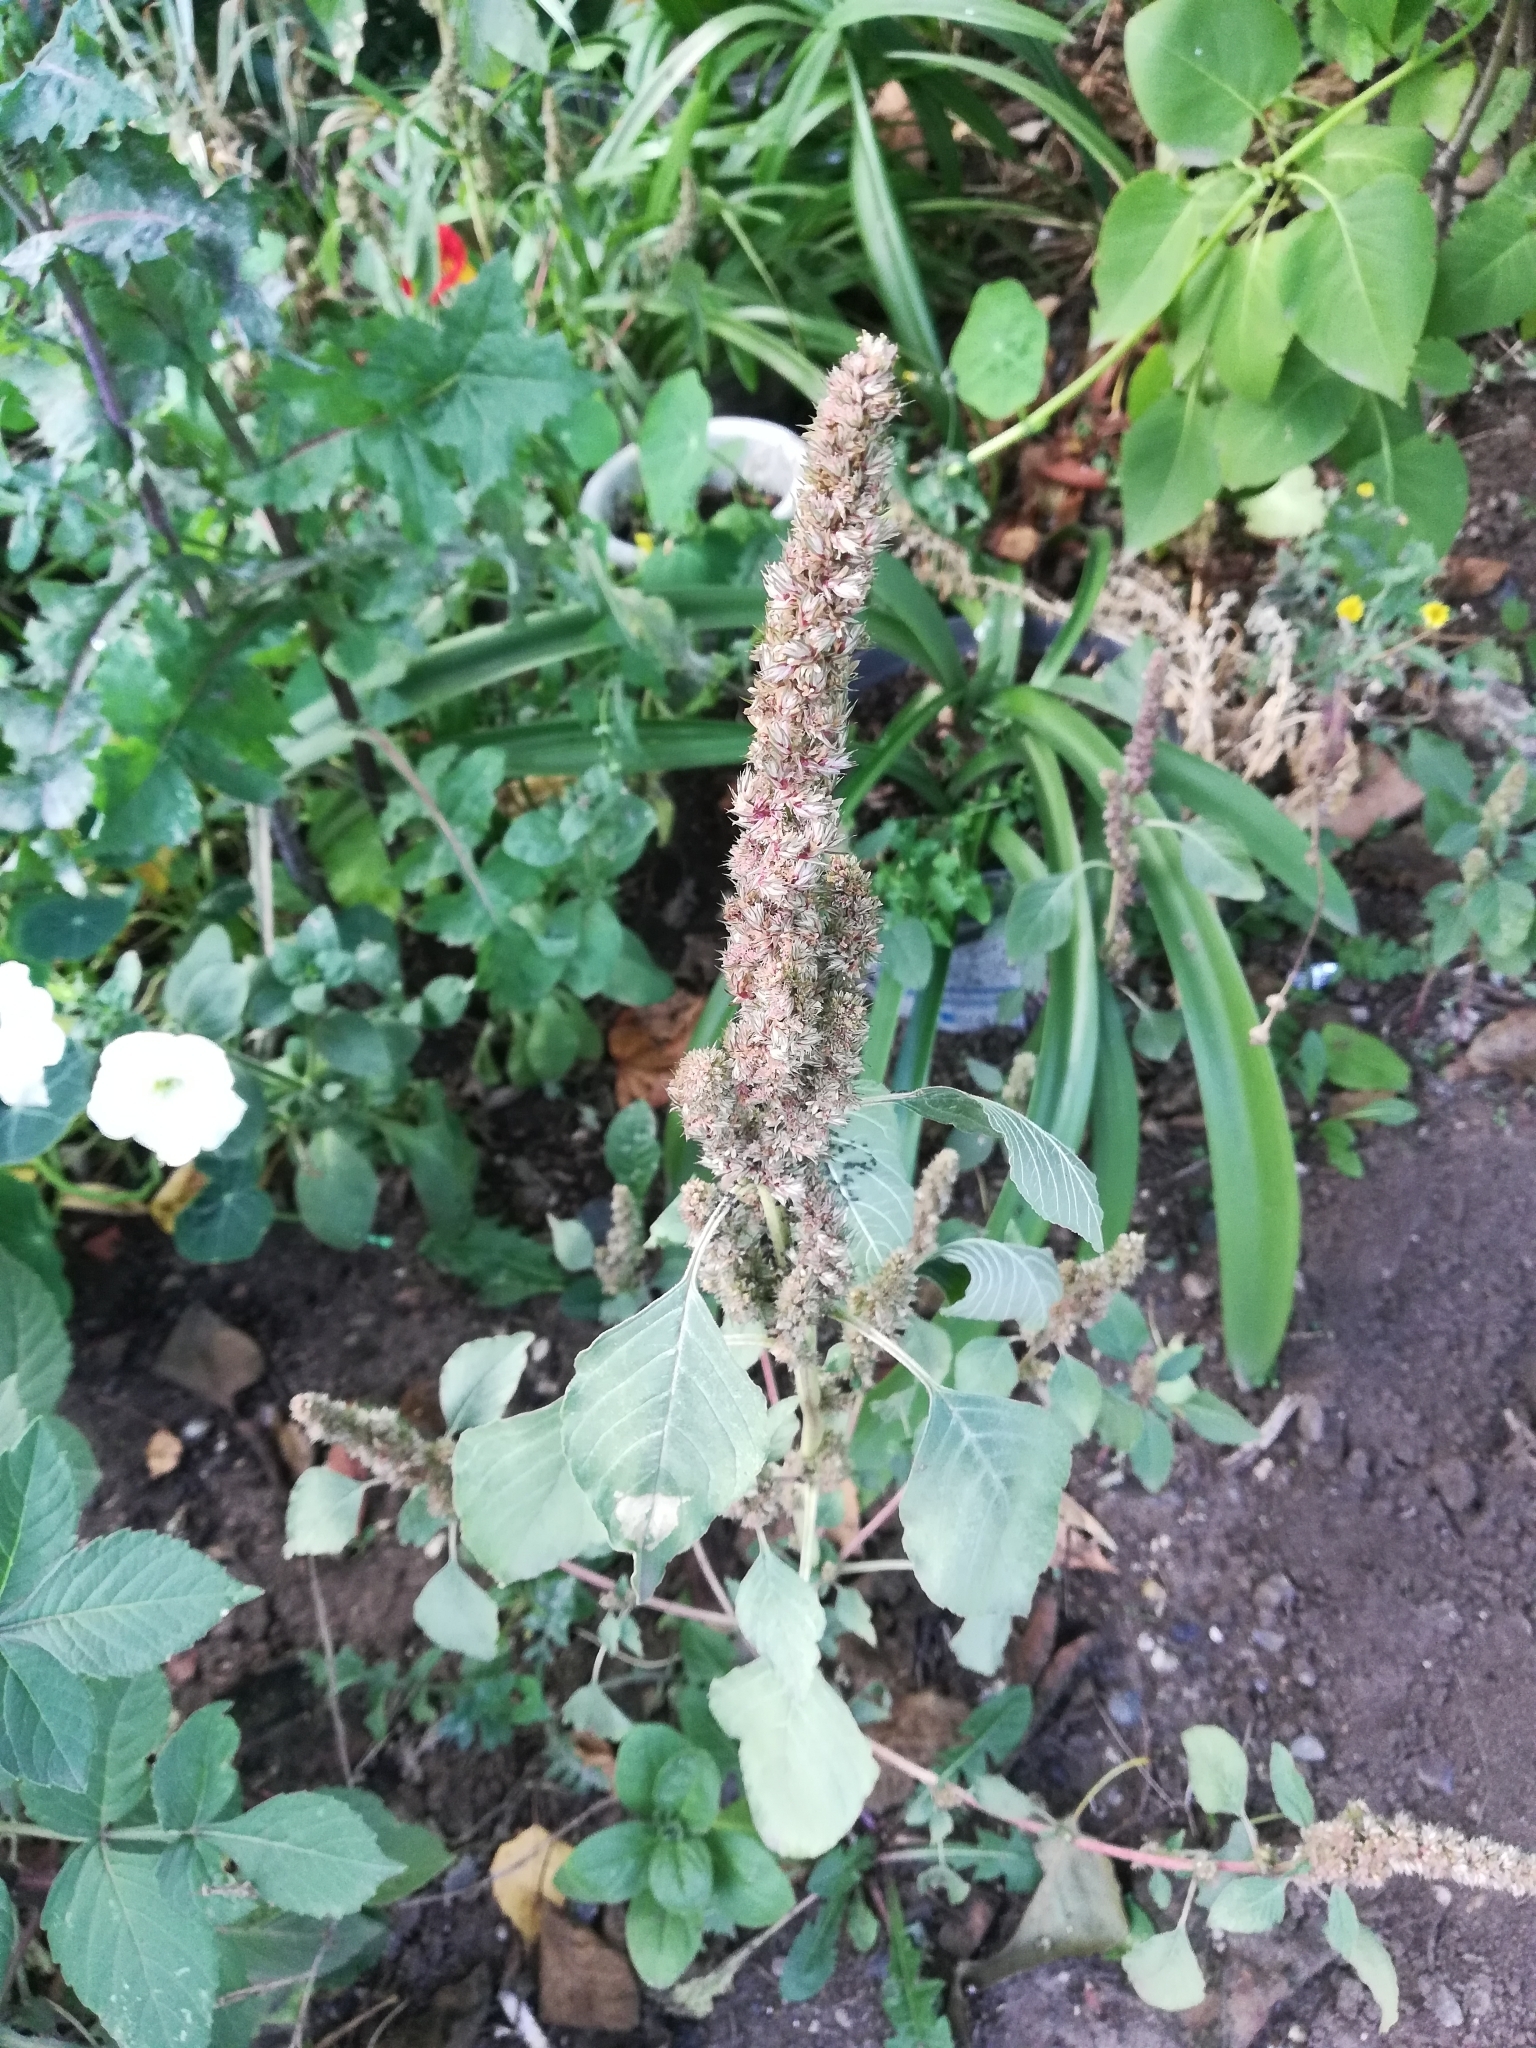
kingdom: Plantae
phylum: Tracheophyta
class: Magnoliopsida
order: Caryophyllales
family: Amaranthaceae
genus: Amaranthus
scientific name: Amaranthus retroflexus
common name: Redroot amaranth
